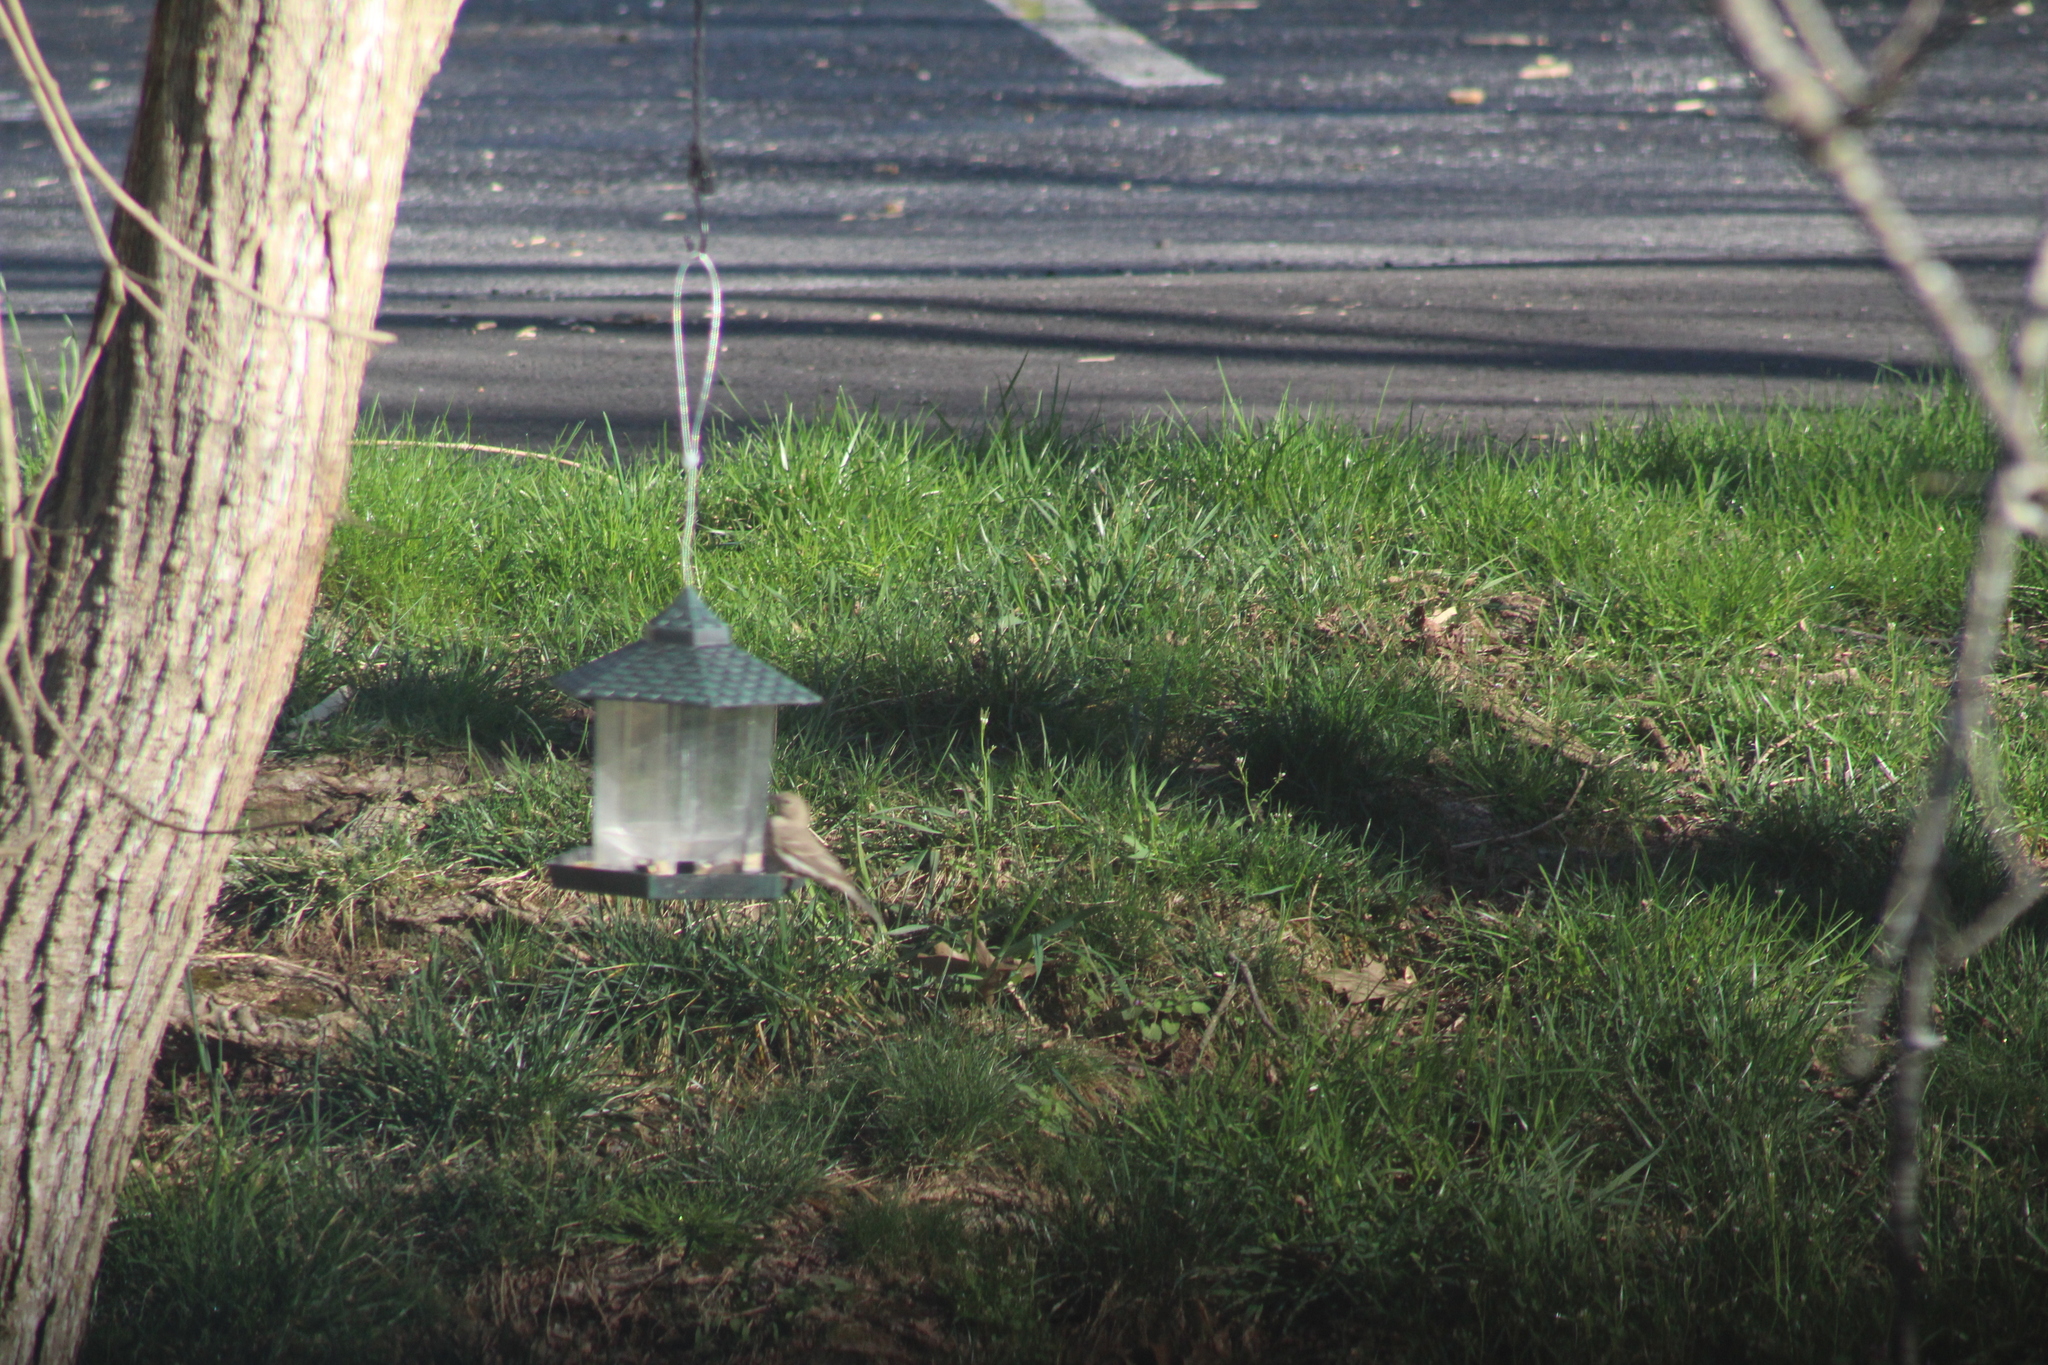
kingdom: Animalia
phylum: Chordata
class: Aves
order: Passeriformes
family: Passeridae
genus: Passer
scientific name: Passer domesticus
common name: House sparrow
